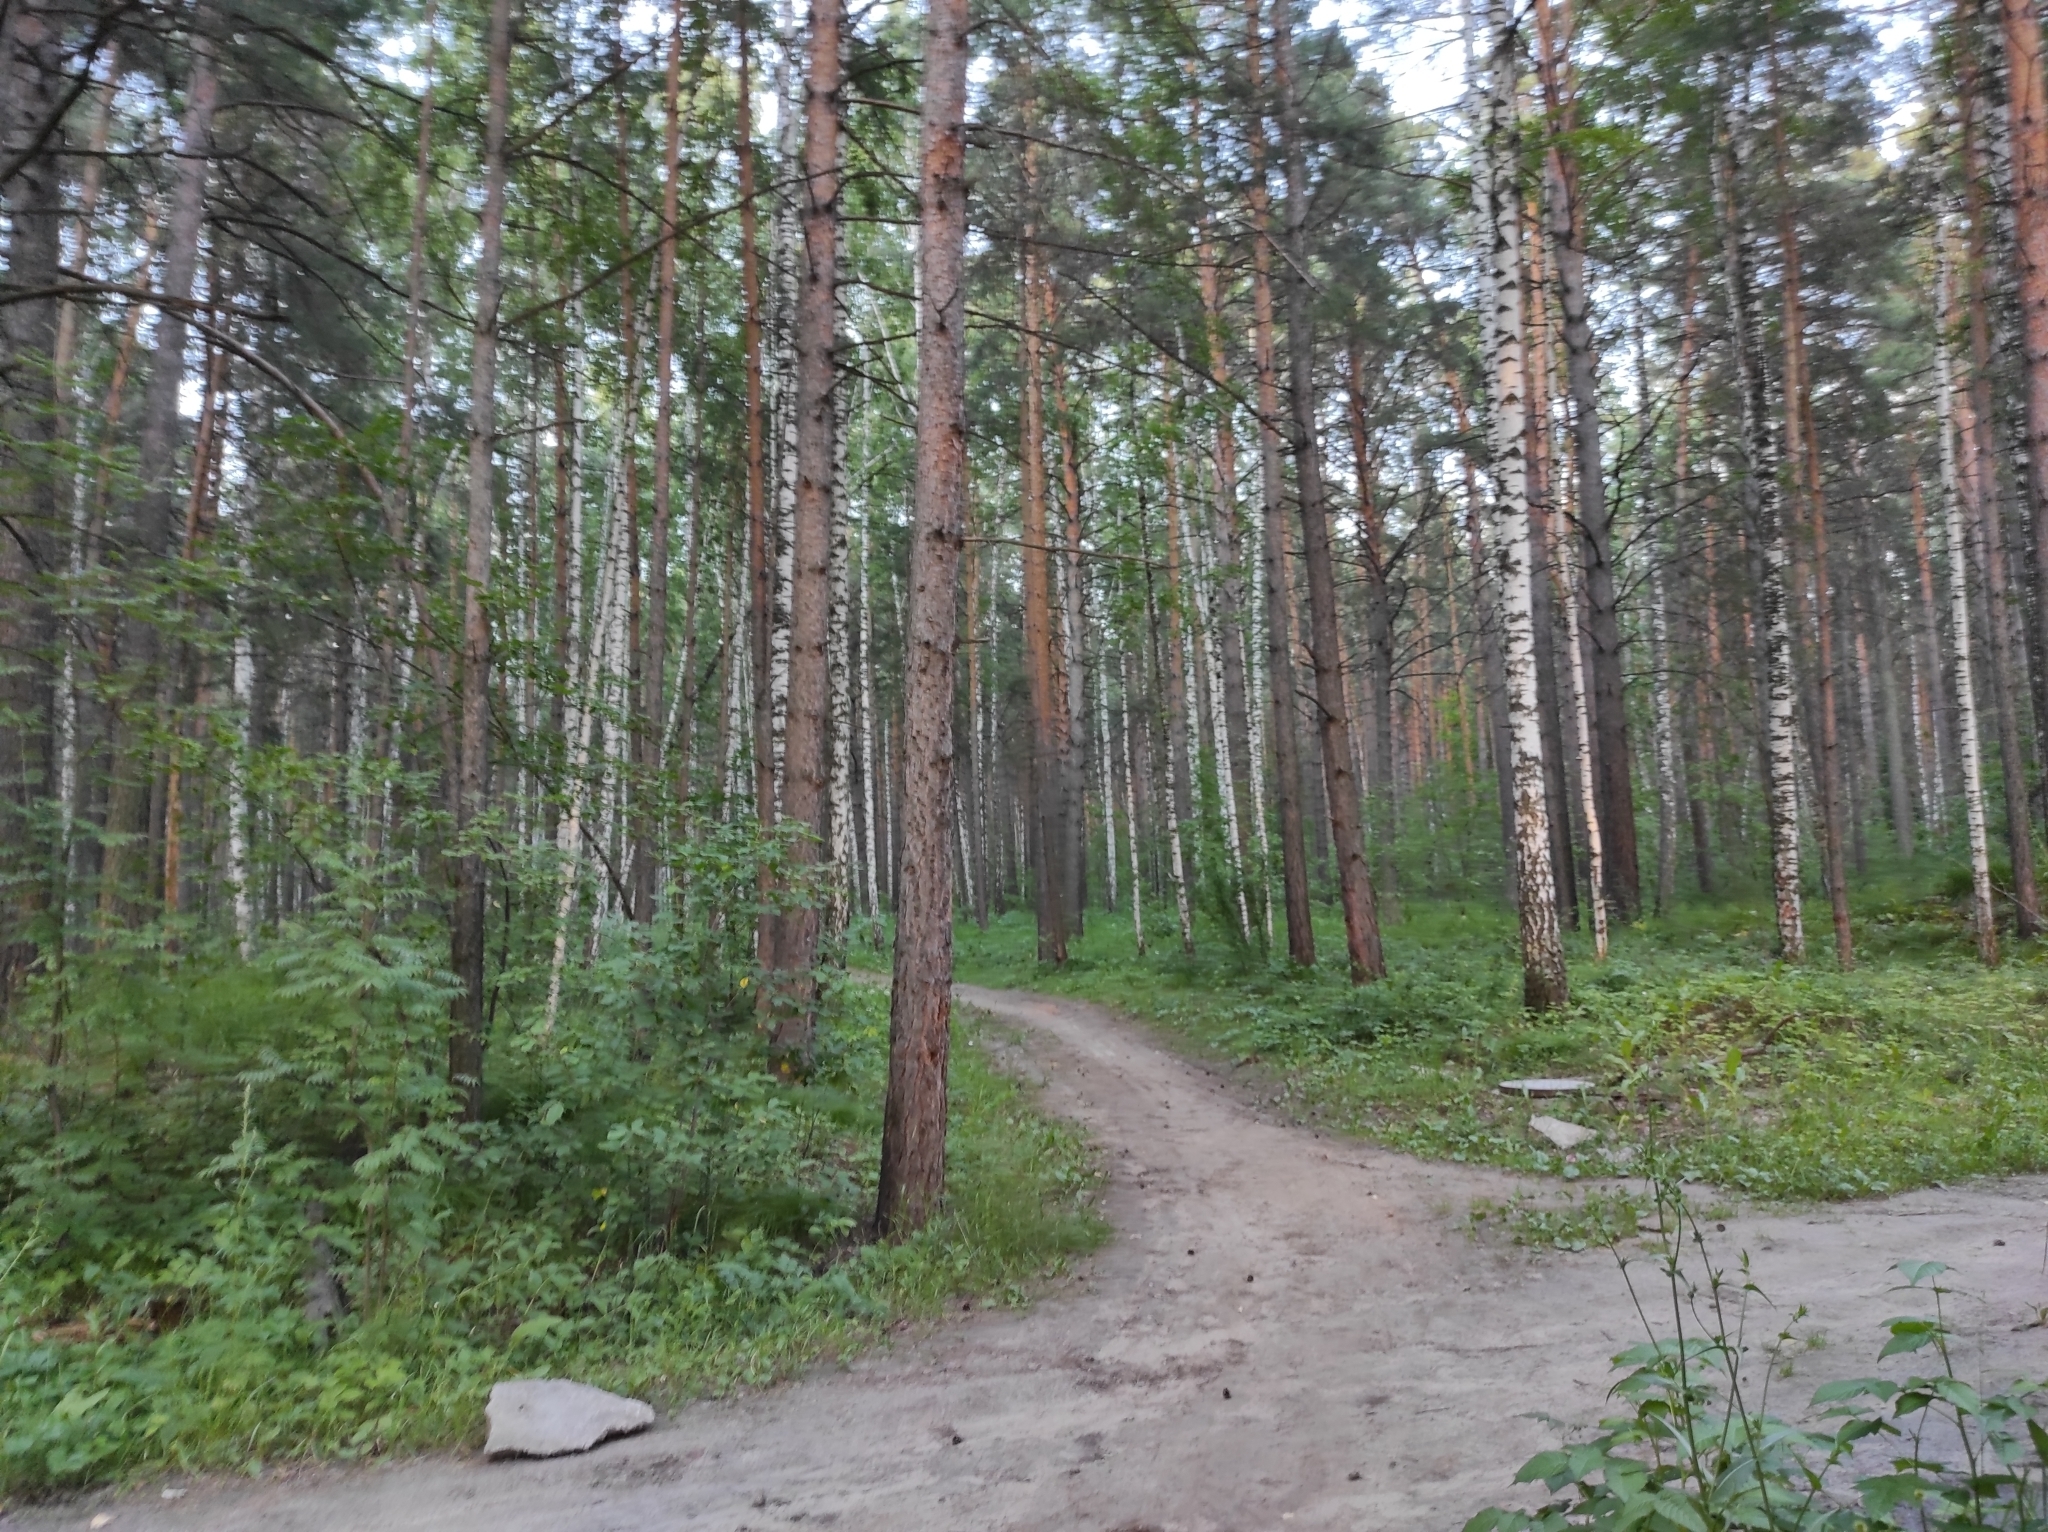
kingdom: Plantae
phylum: Tracheophyta
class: Pinopsida
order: Pinales
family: Pinaceae
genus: Pinus
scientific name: Pinus sylvestris
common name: Scots pine
